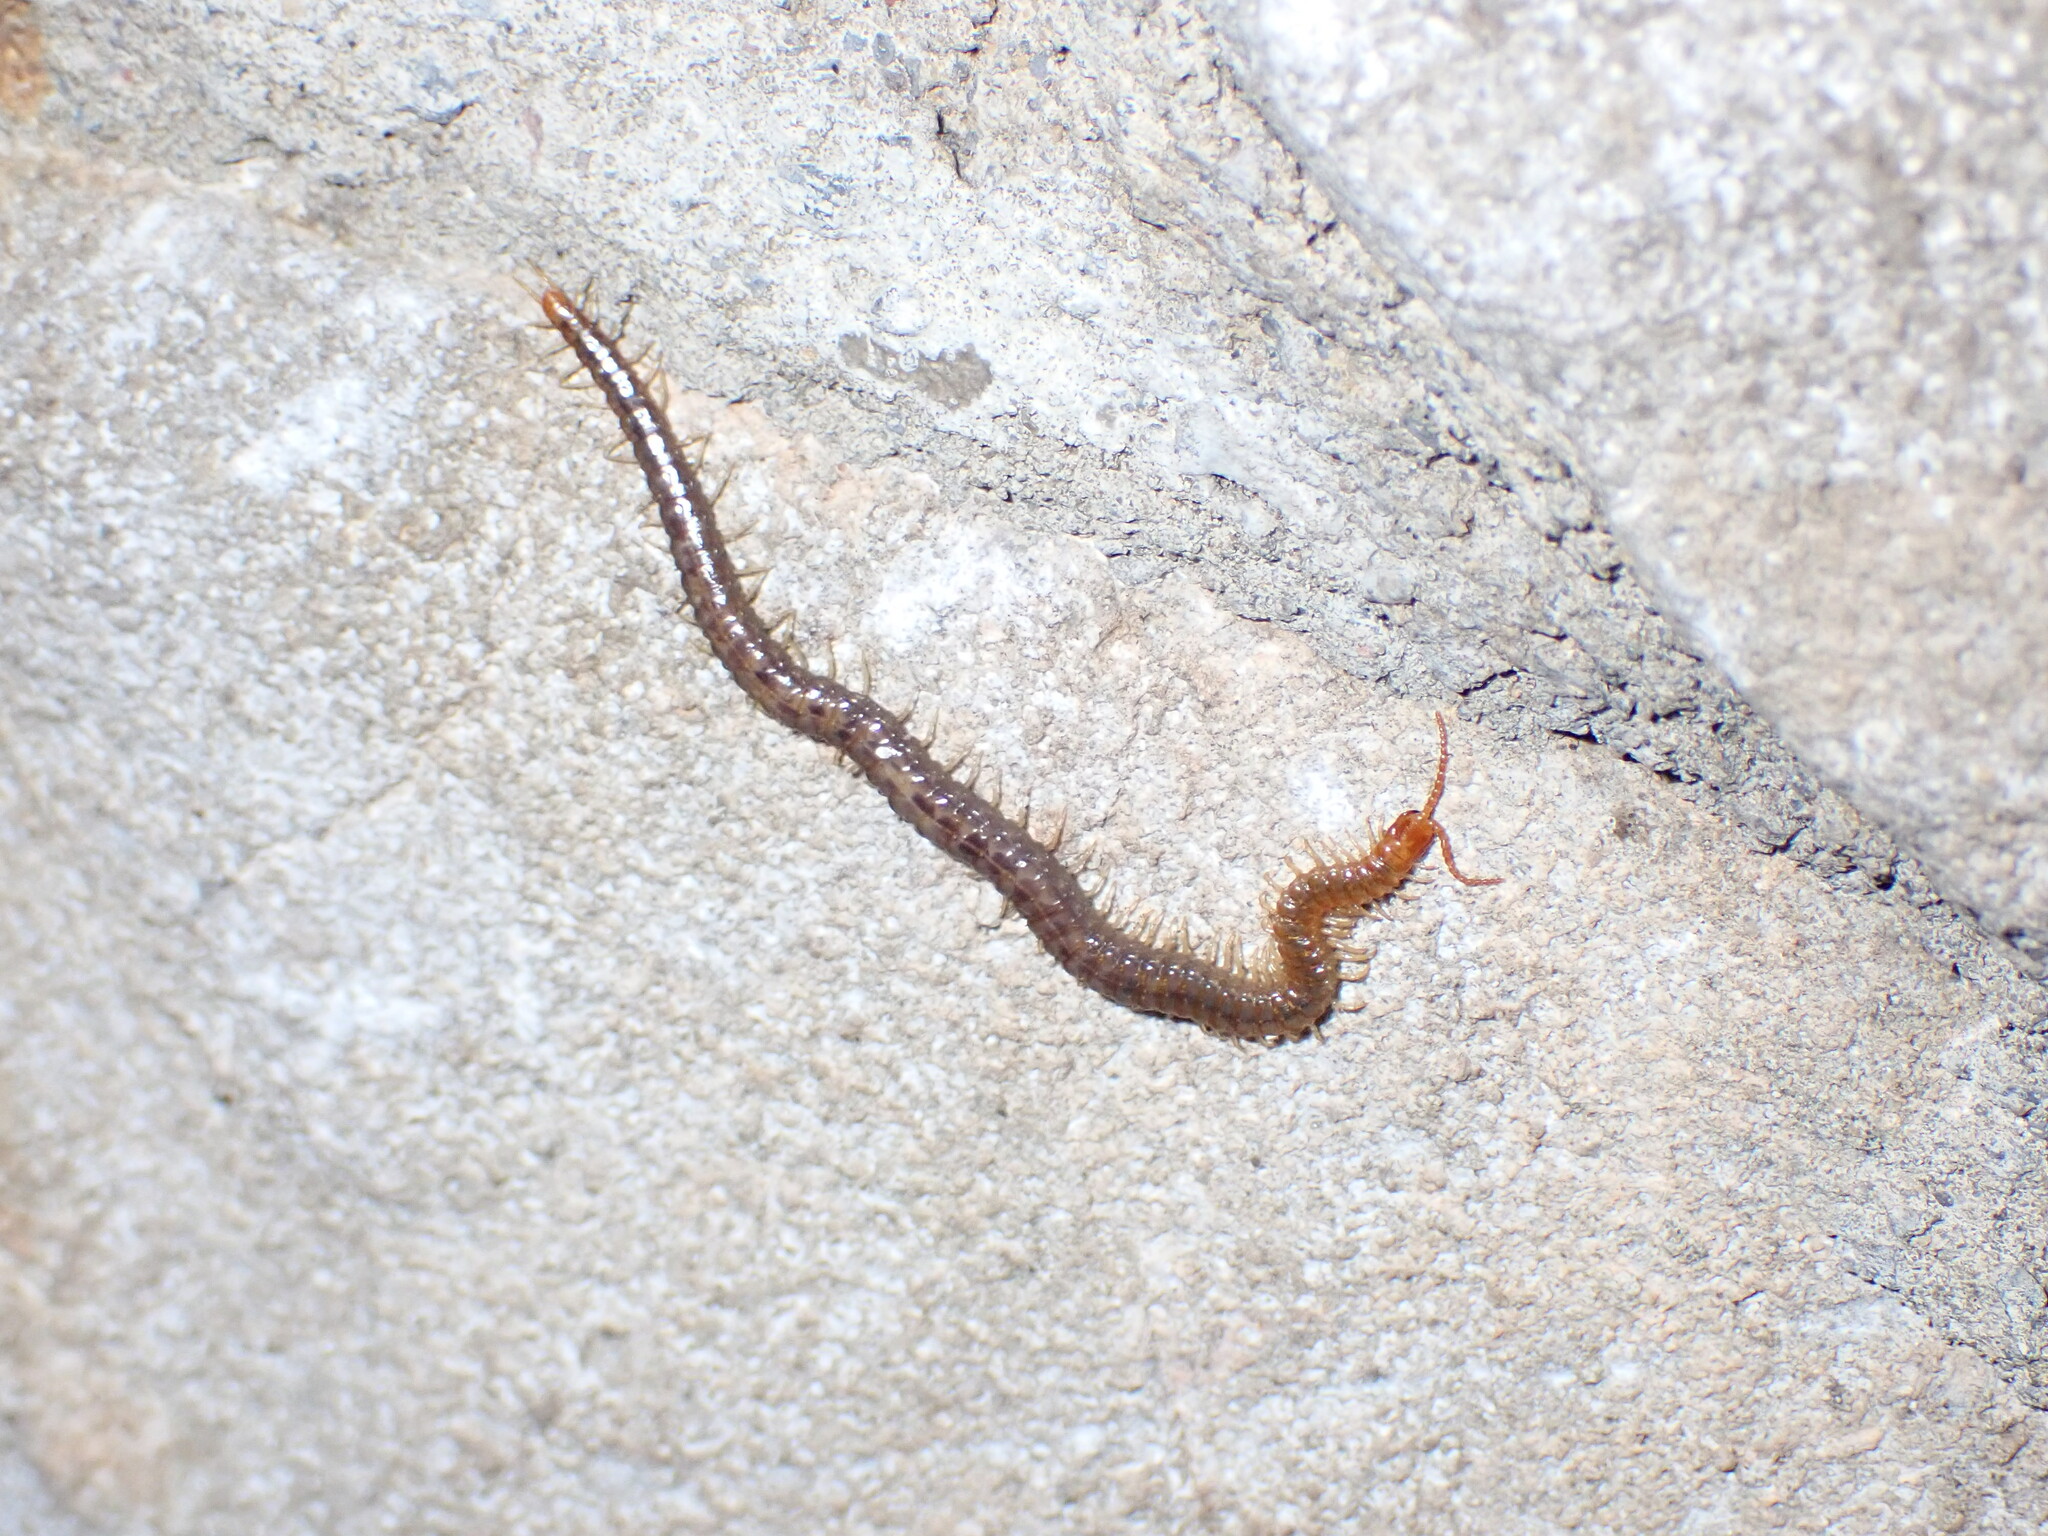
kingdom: Animalia
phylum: Arthropoda
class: Chilopoda
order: Geophilomorpha
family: Geophilidae
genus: Geophilus
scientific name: Geophilus carpophagus
